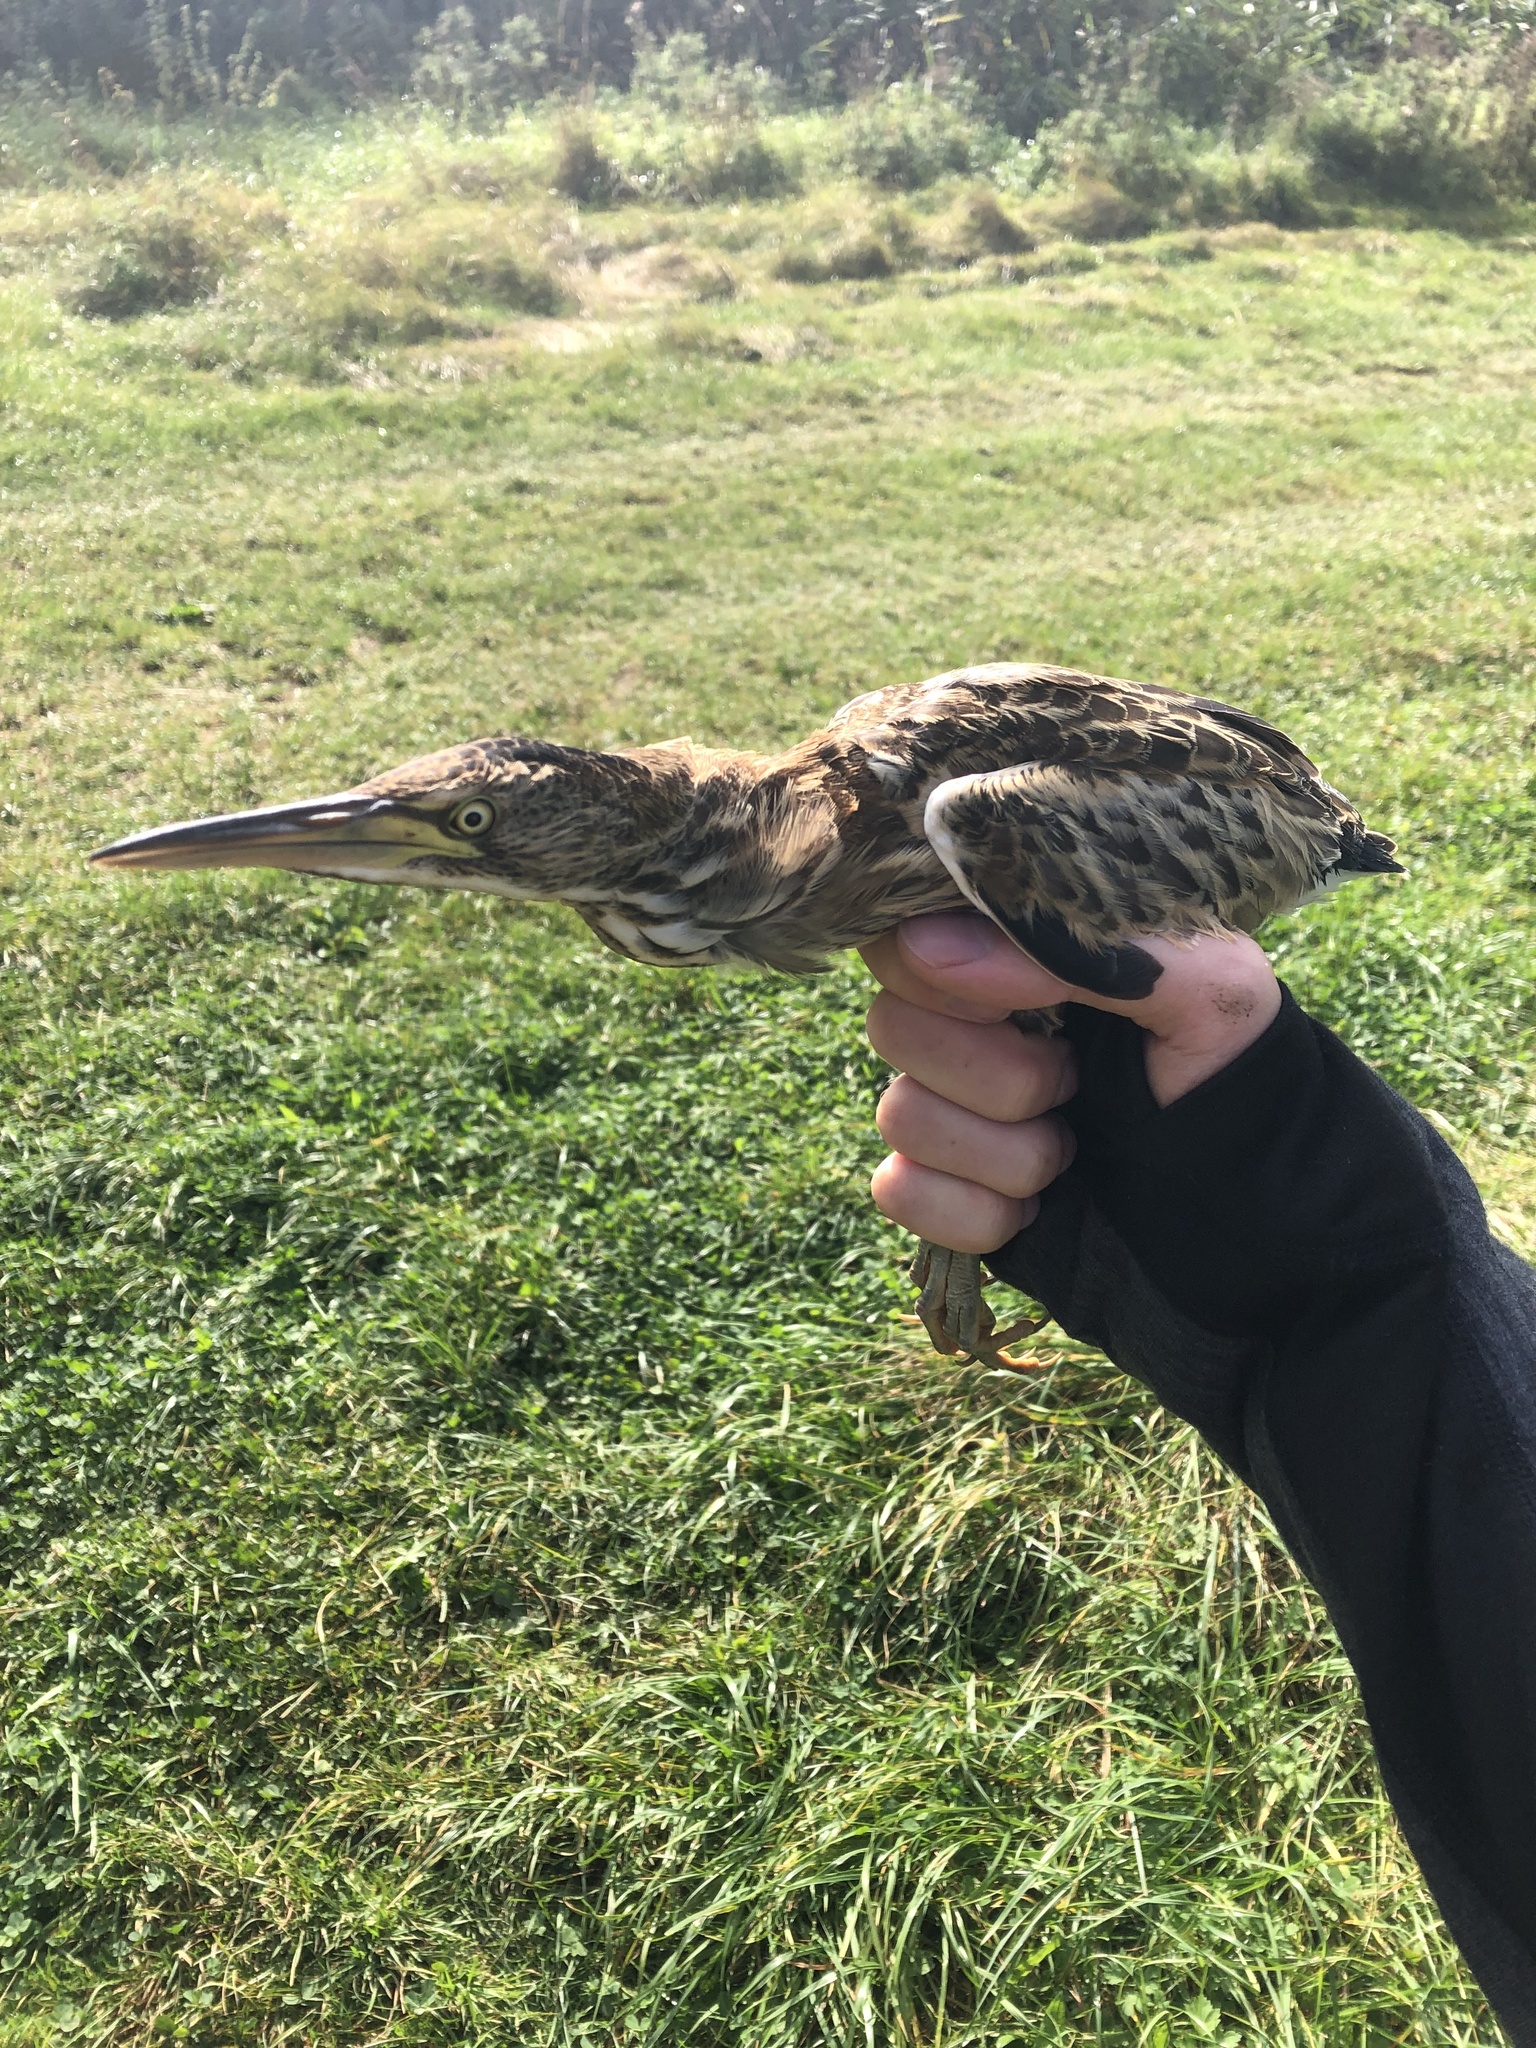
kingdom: Animalia
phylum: Chordata
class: Aves
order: Pelecaniformes
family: Ardeidae
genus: Ixobrychus
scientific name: Ixobrychus minutus
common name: Little bittern
